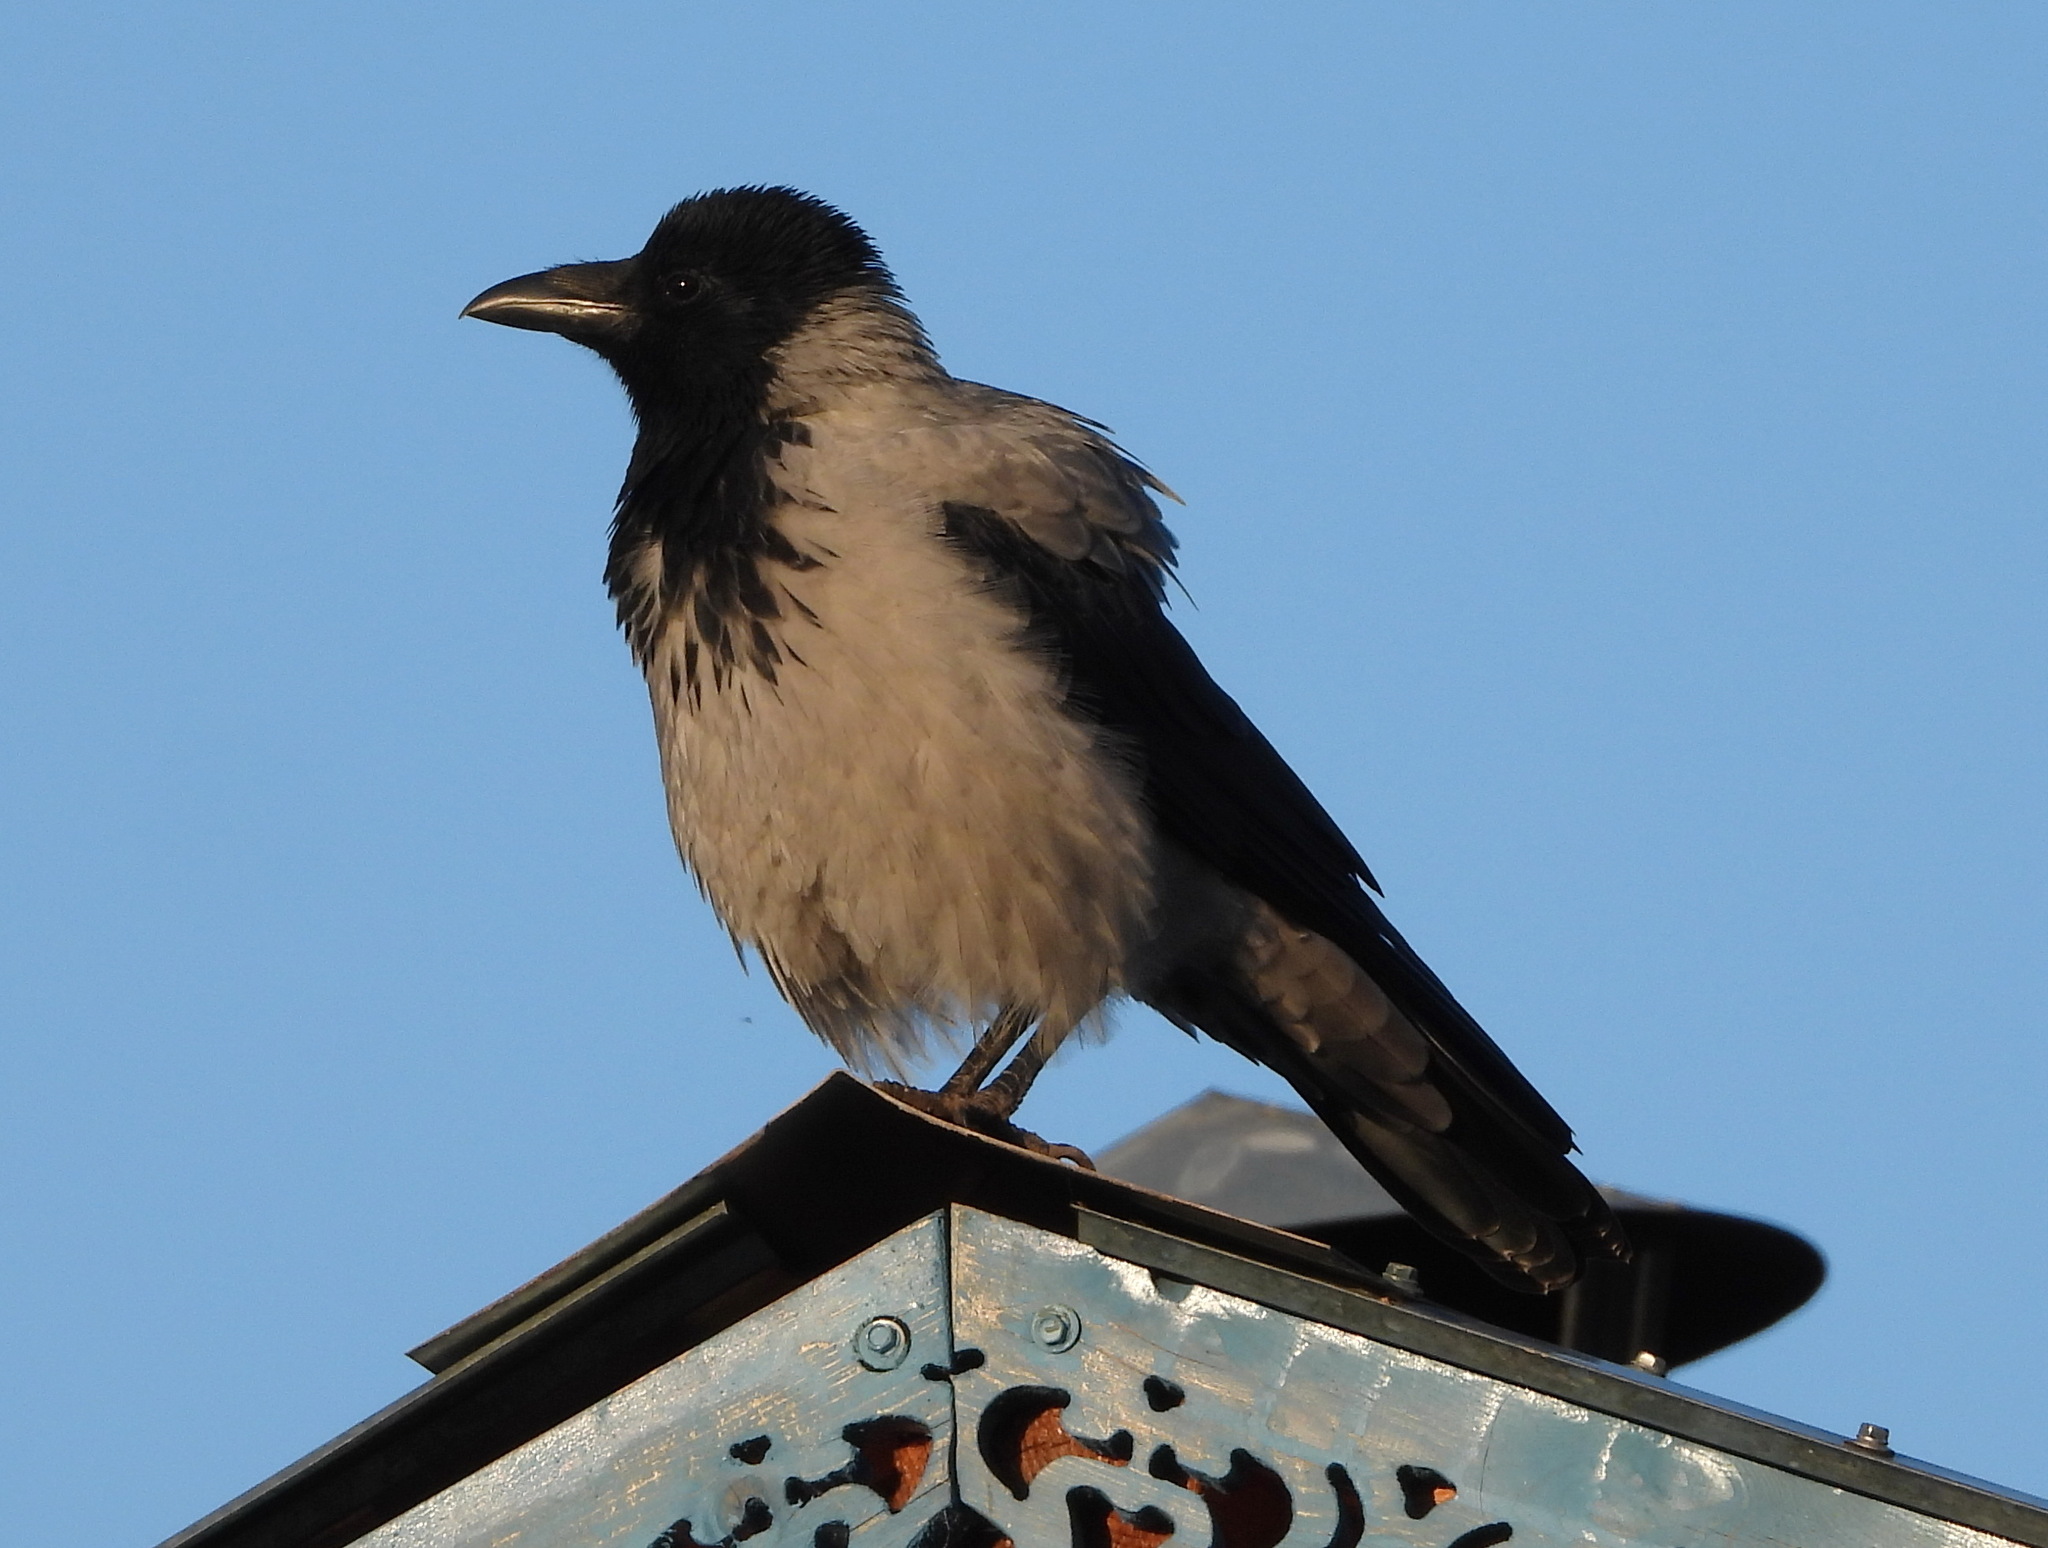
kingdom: Animalia
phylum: Chordata
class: Aves
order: Passeriformes
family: Corvidae
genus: Corvus
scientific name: Corvus cornix
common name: Hooded crow
